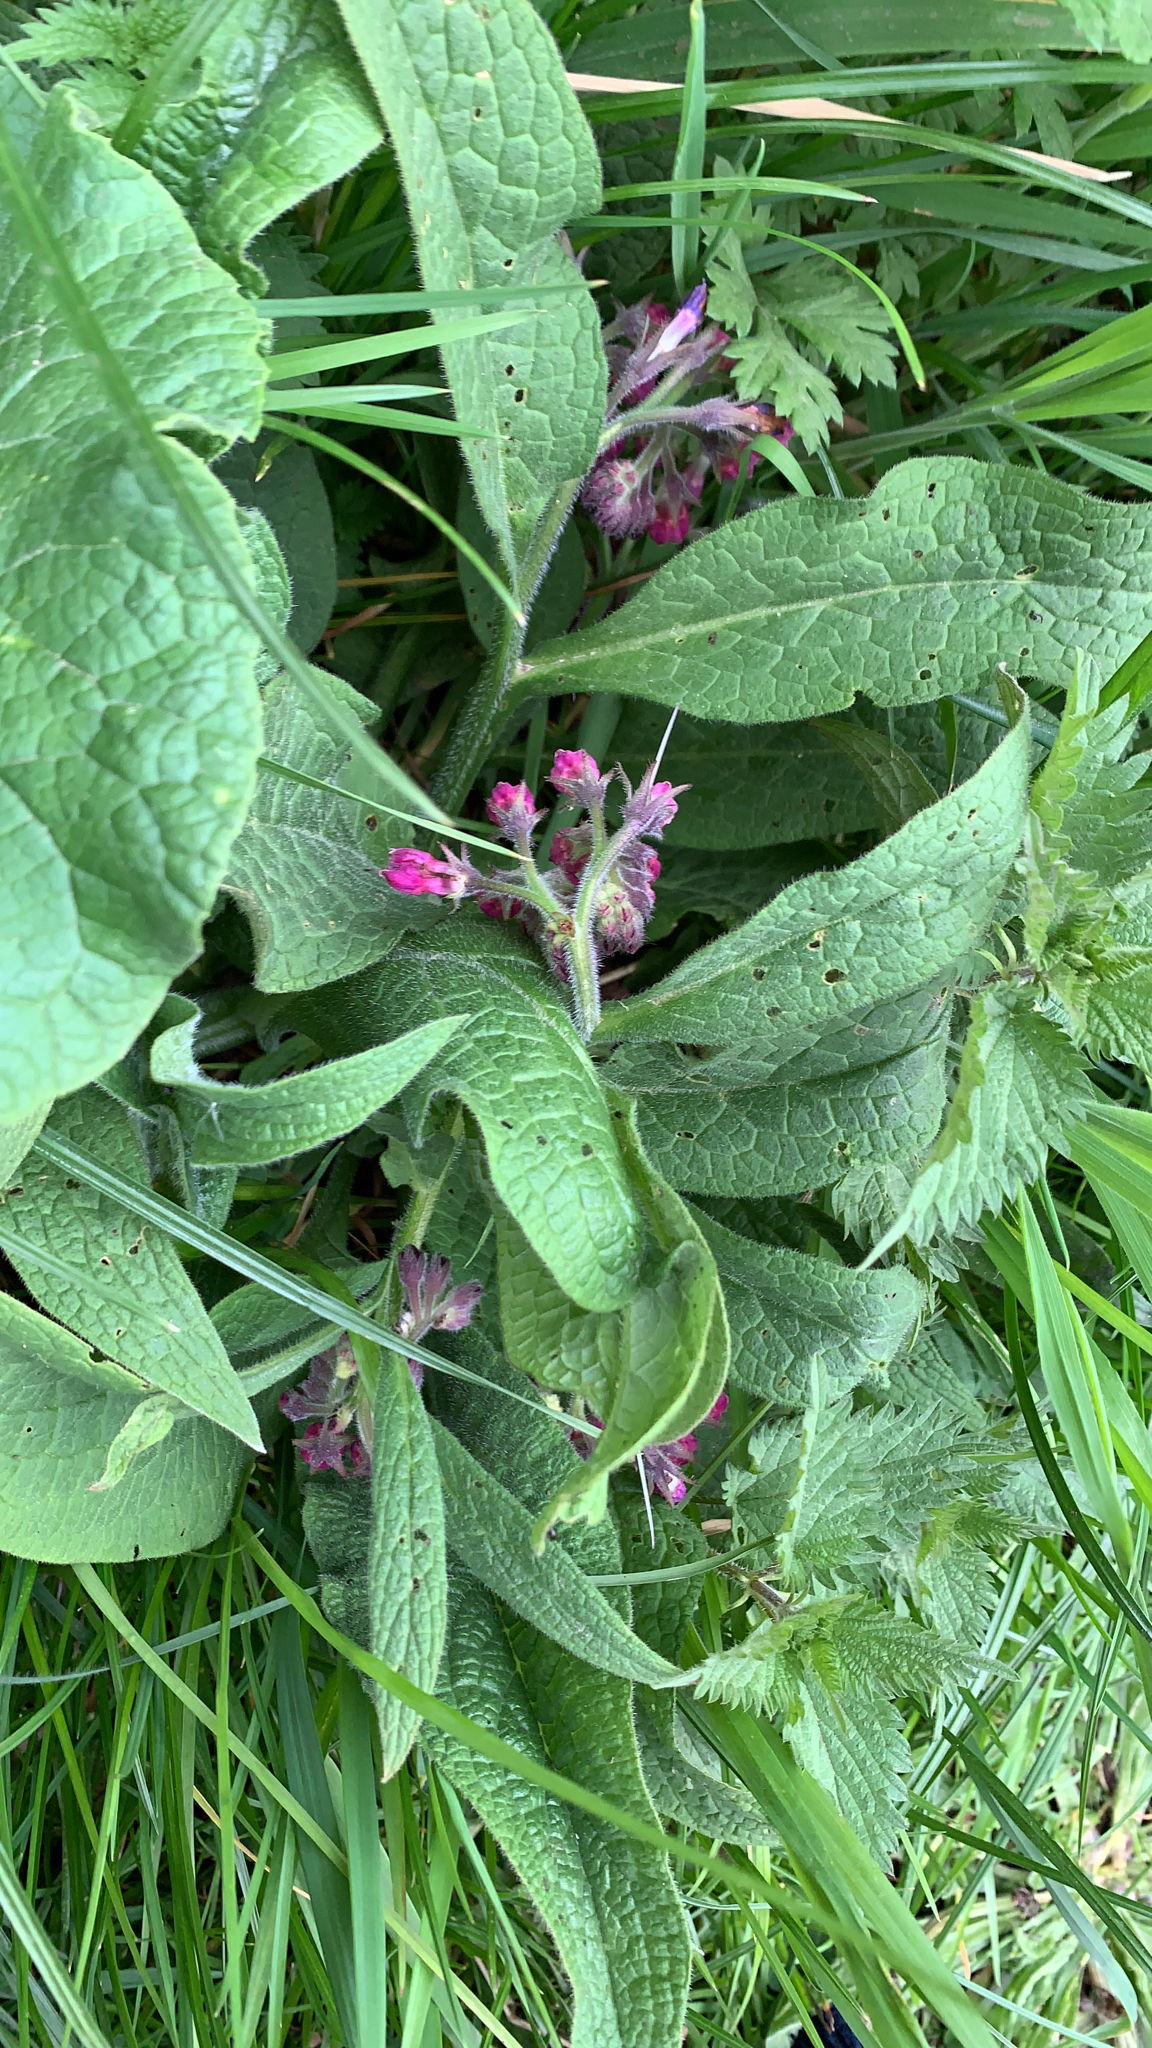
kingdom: Plantae
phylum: Tracheophyta
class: Magnoliopsida
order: Boraginales
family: Boraginaceae
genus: Symphytum
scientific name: Symphytum officinale
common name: Common comfrey
